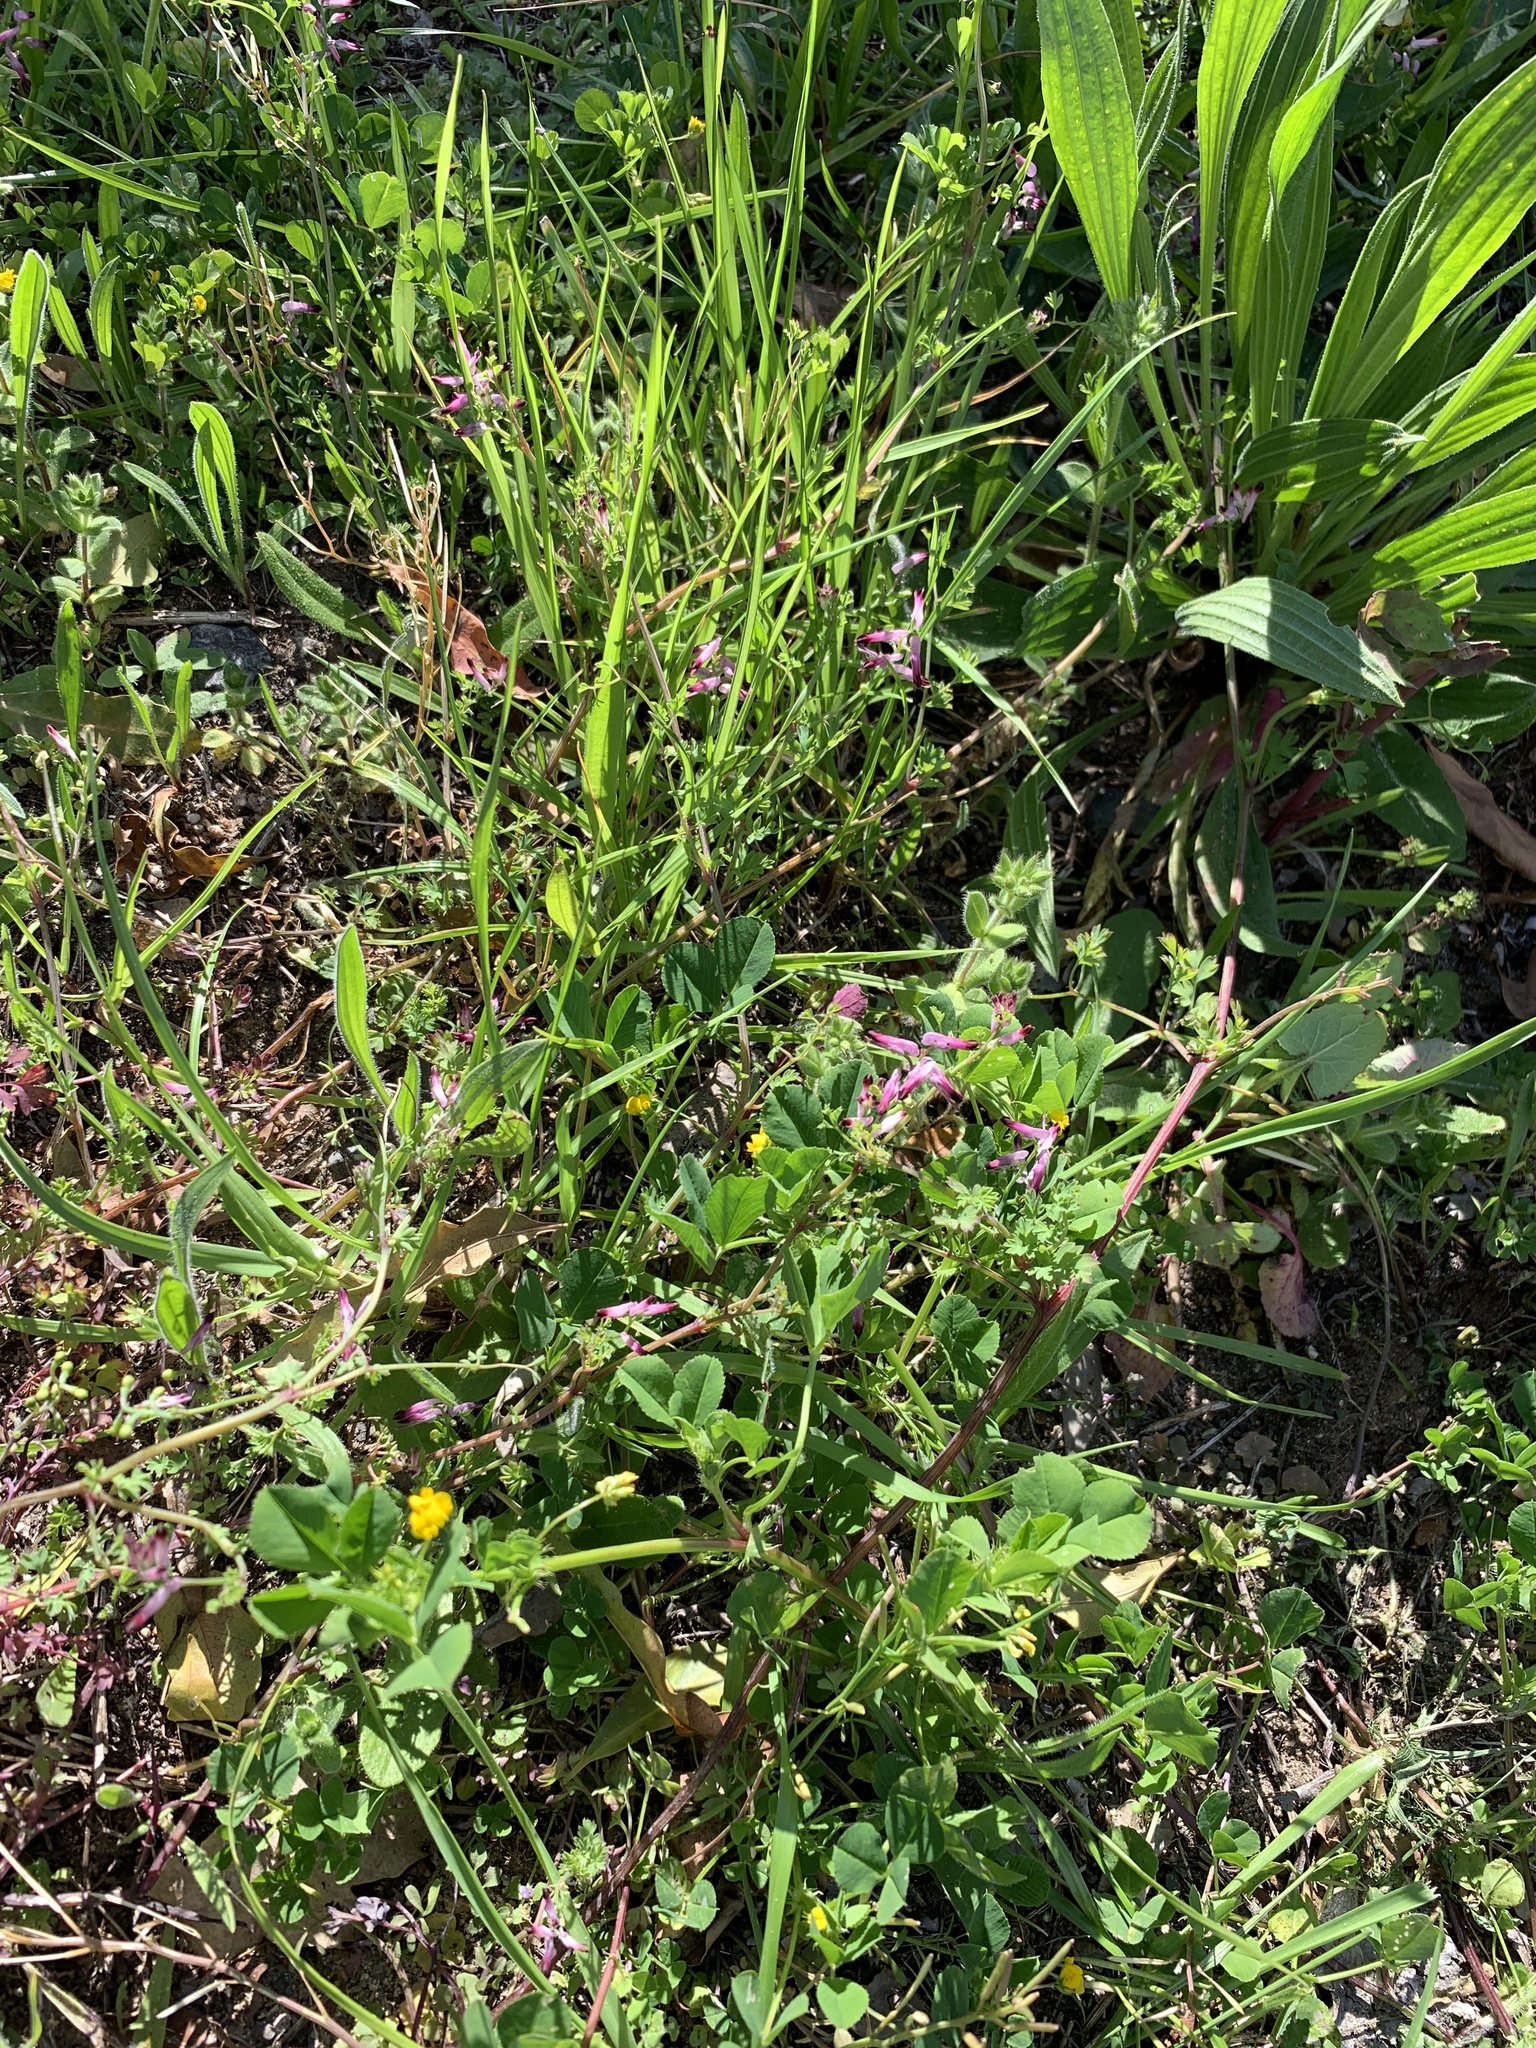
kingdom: Plantae
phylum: Tracheophyta
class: Magnoliopsida
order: Ranunculales
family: Papaveraceae
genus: Fumaria
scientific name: Fumaria muralis
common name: Common ramping-fumitory
